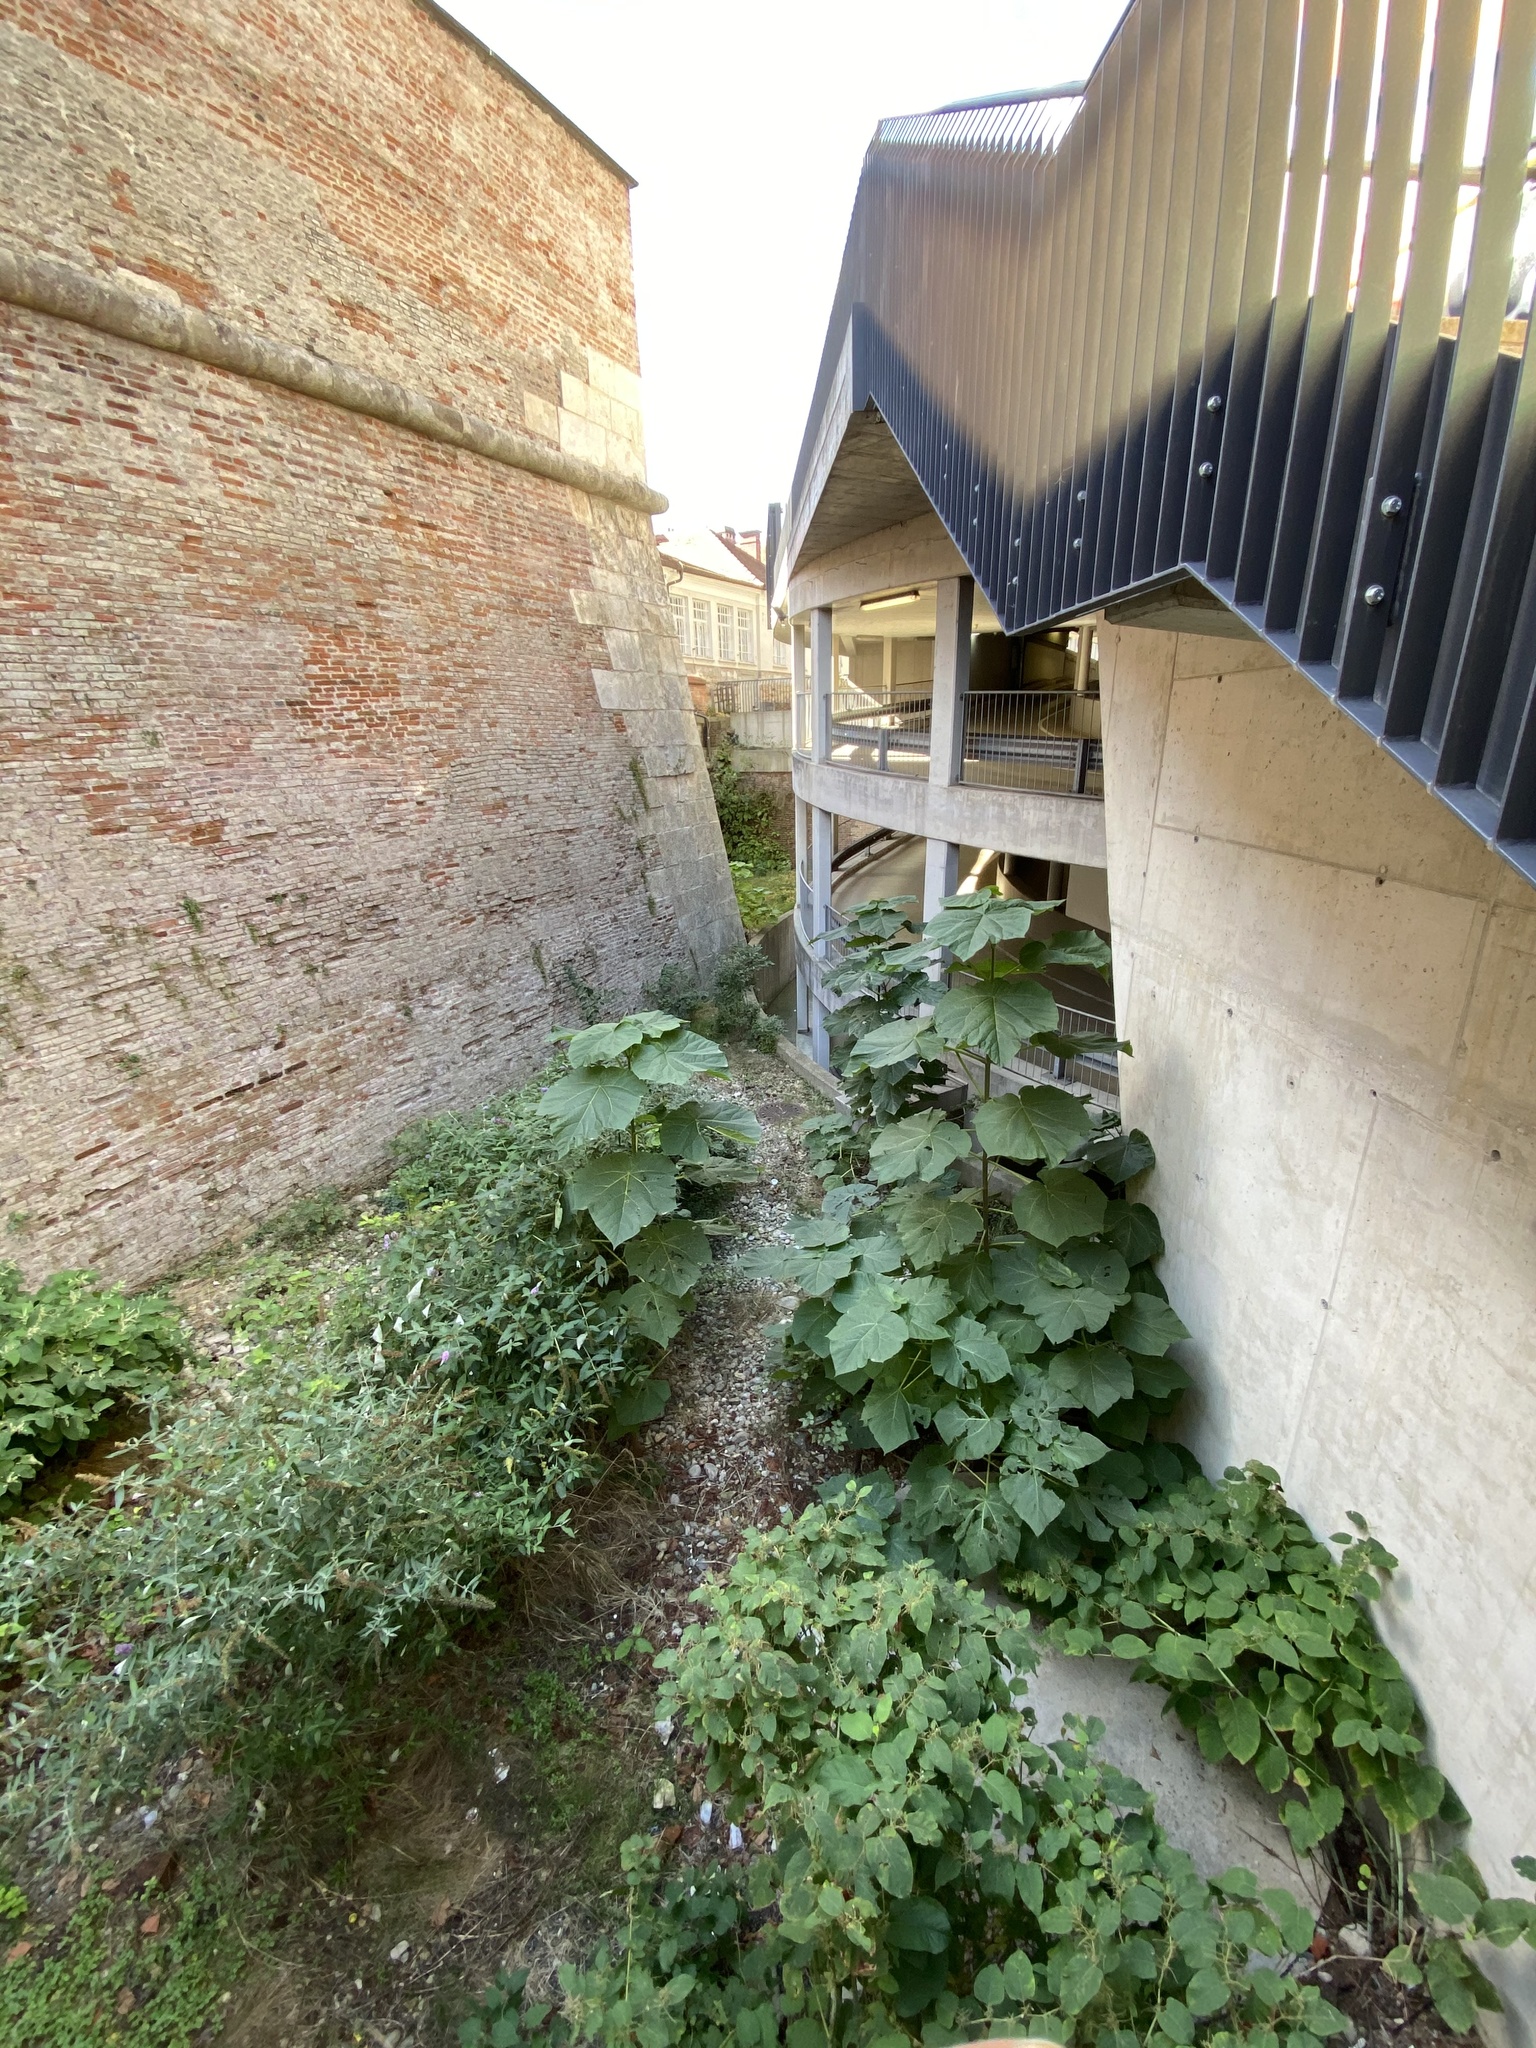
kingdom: Plantae
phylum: Tracheophyta
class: Magnoliopsida
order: Lamiales
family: Paulowniaceae
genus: Paulownia
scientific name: Paulownia tomentosa
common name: Foxglove-tree
